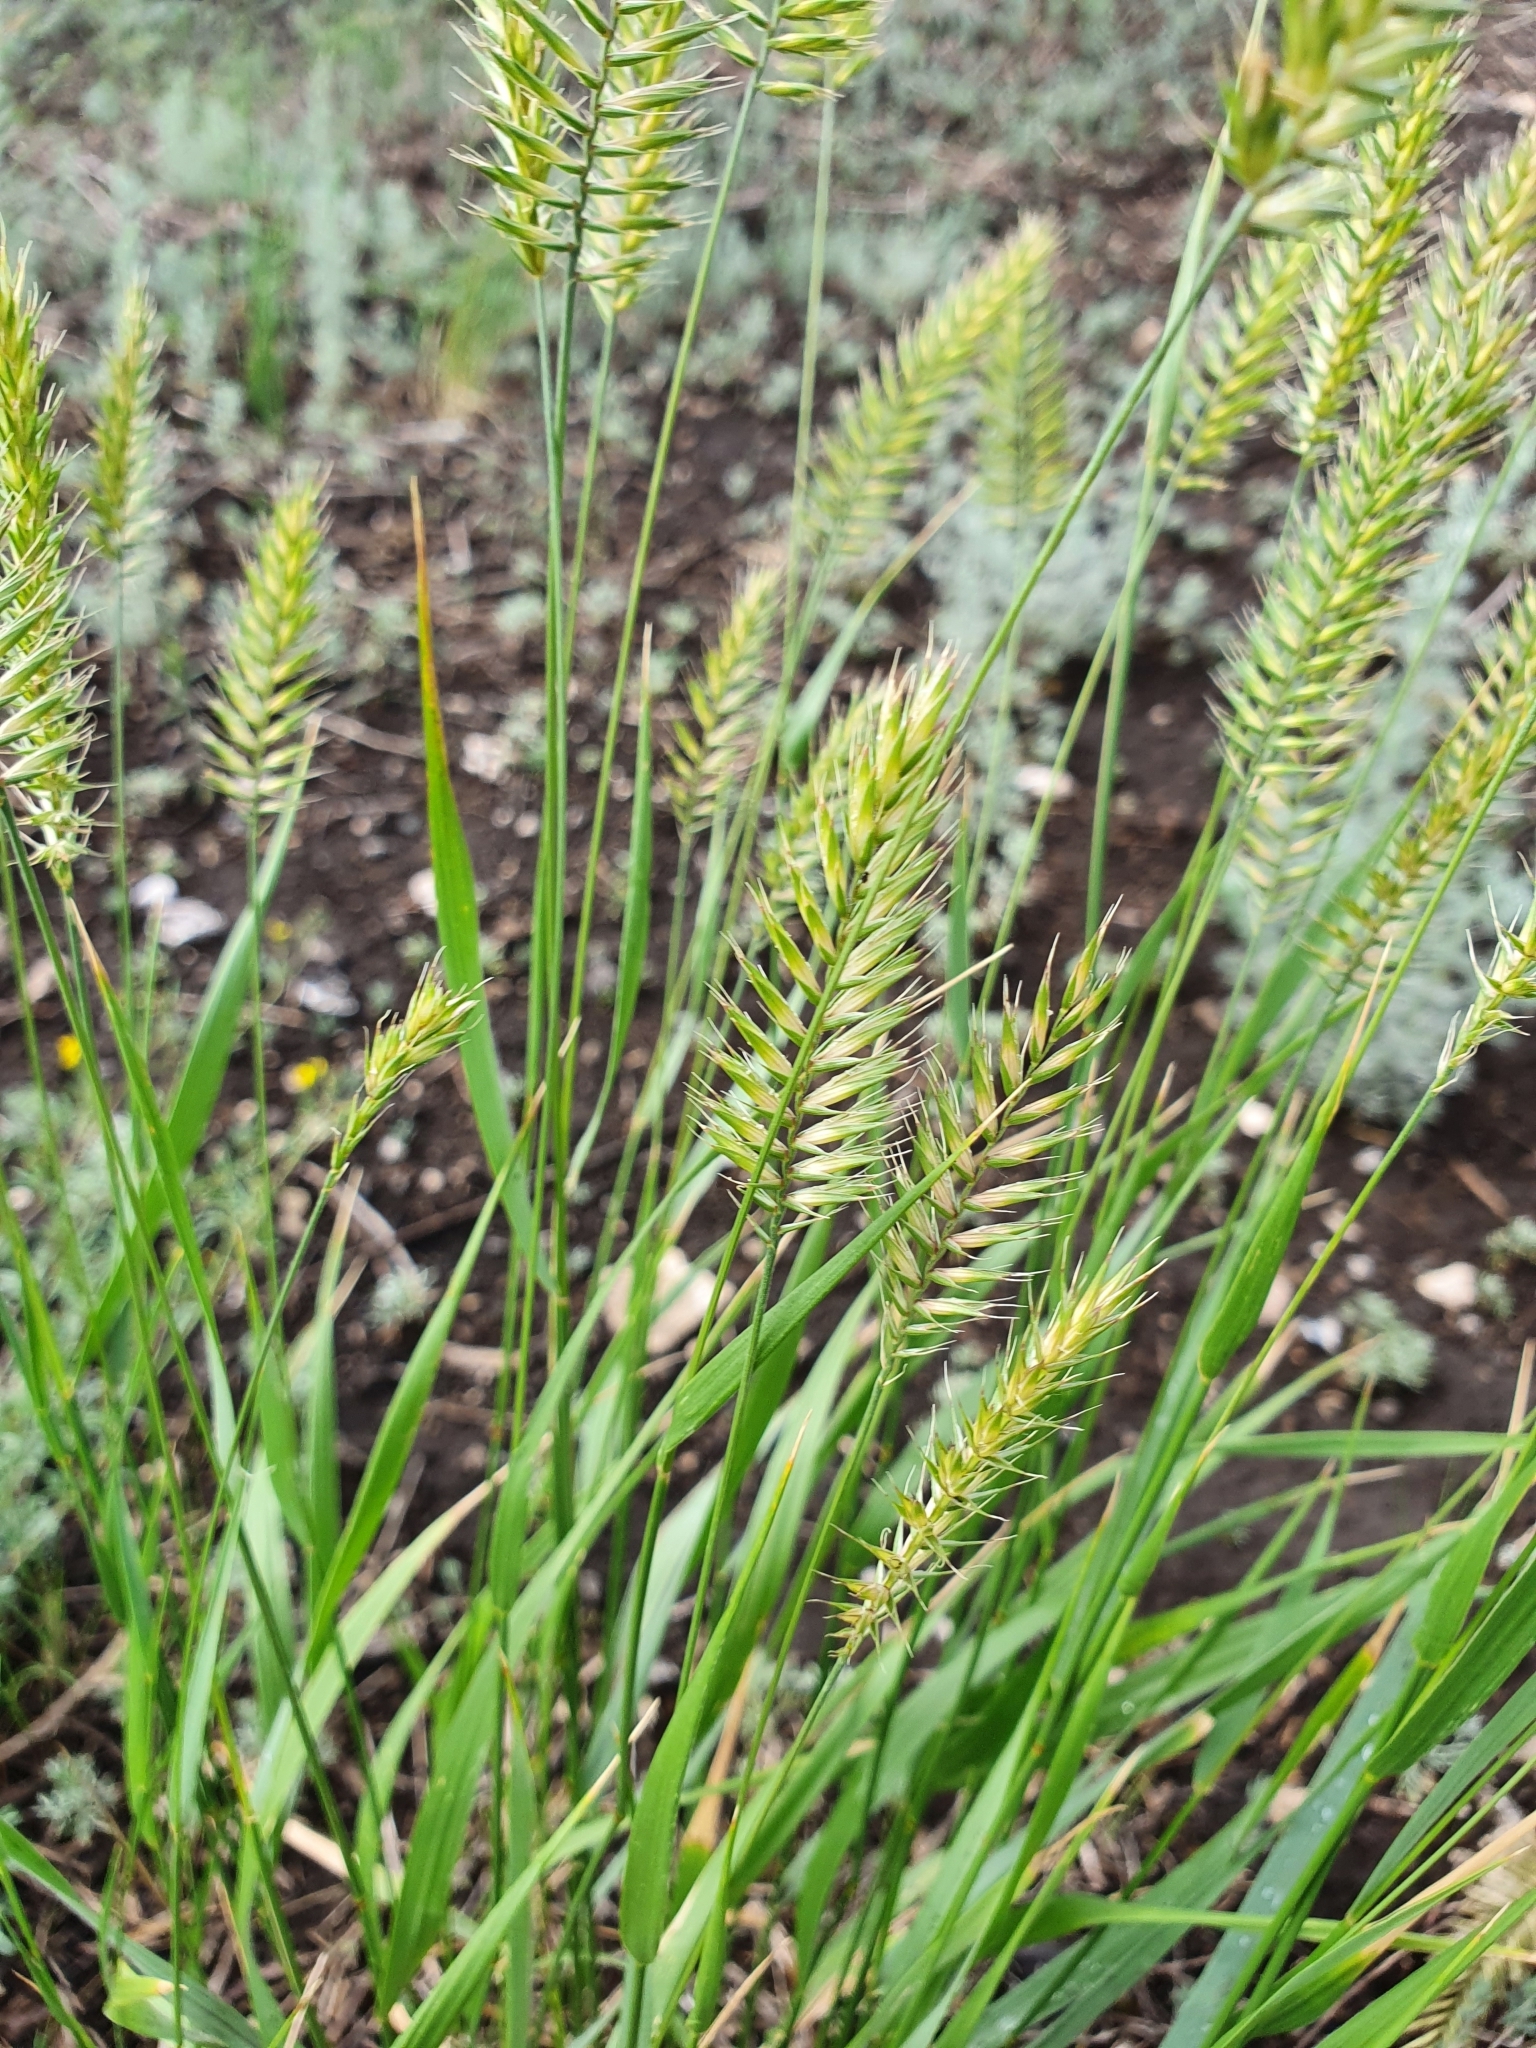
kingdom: Plantae
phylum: Tracheophyta
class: Liliopsida
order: Poales
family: Poaceae
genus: Agropyron
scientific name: Agropyron cristatum
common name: Crested wheatgrass
